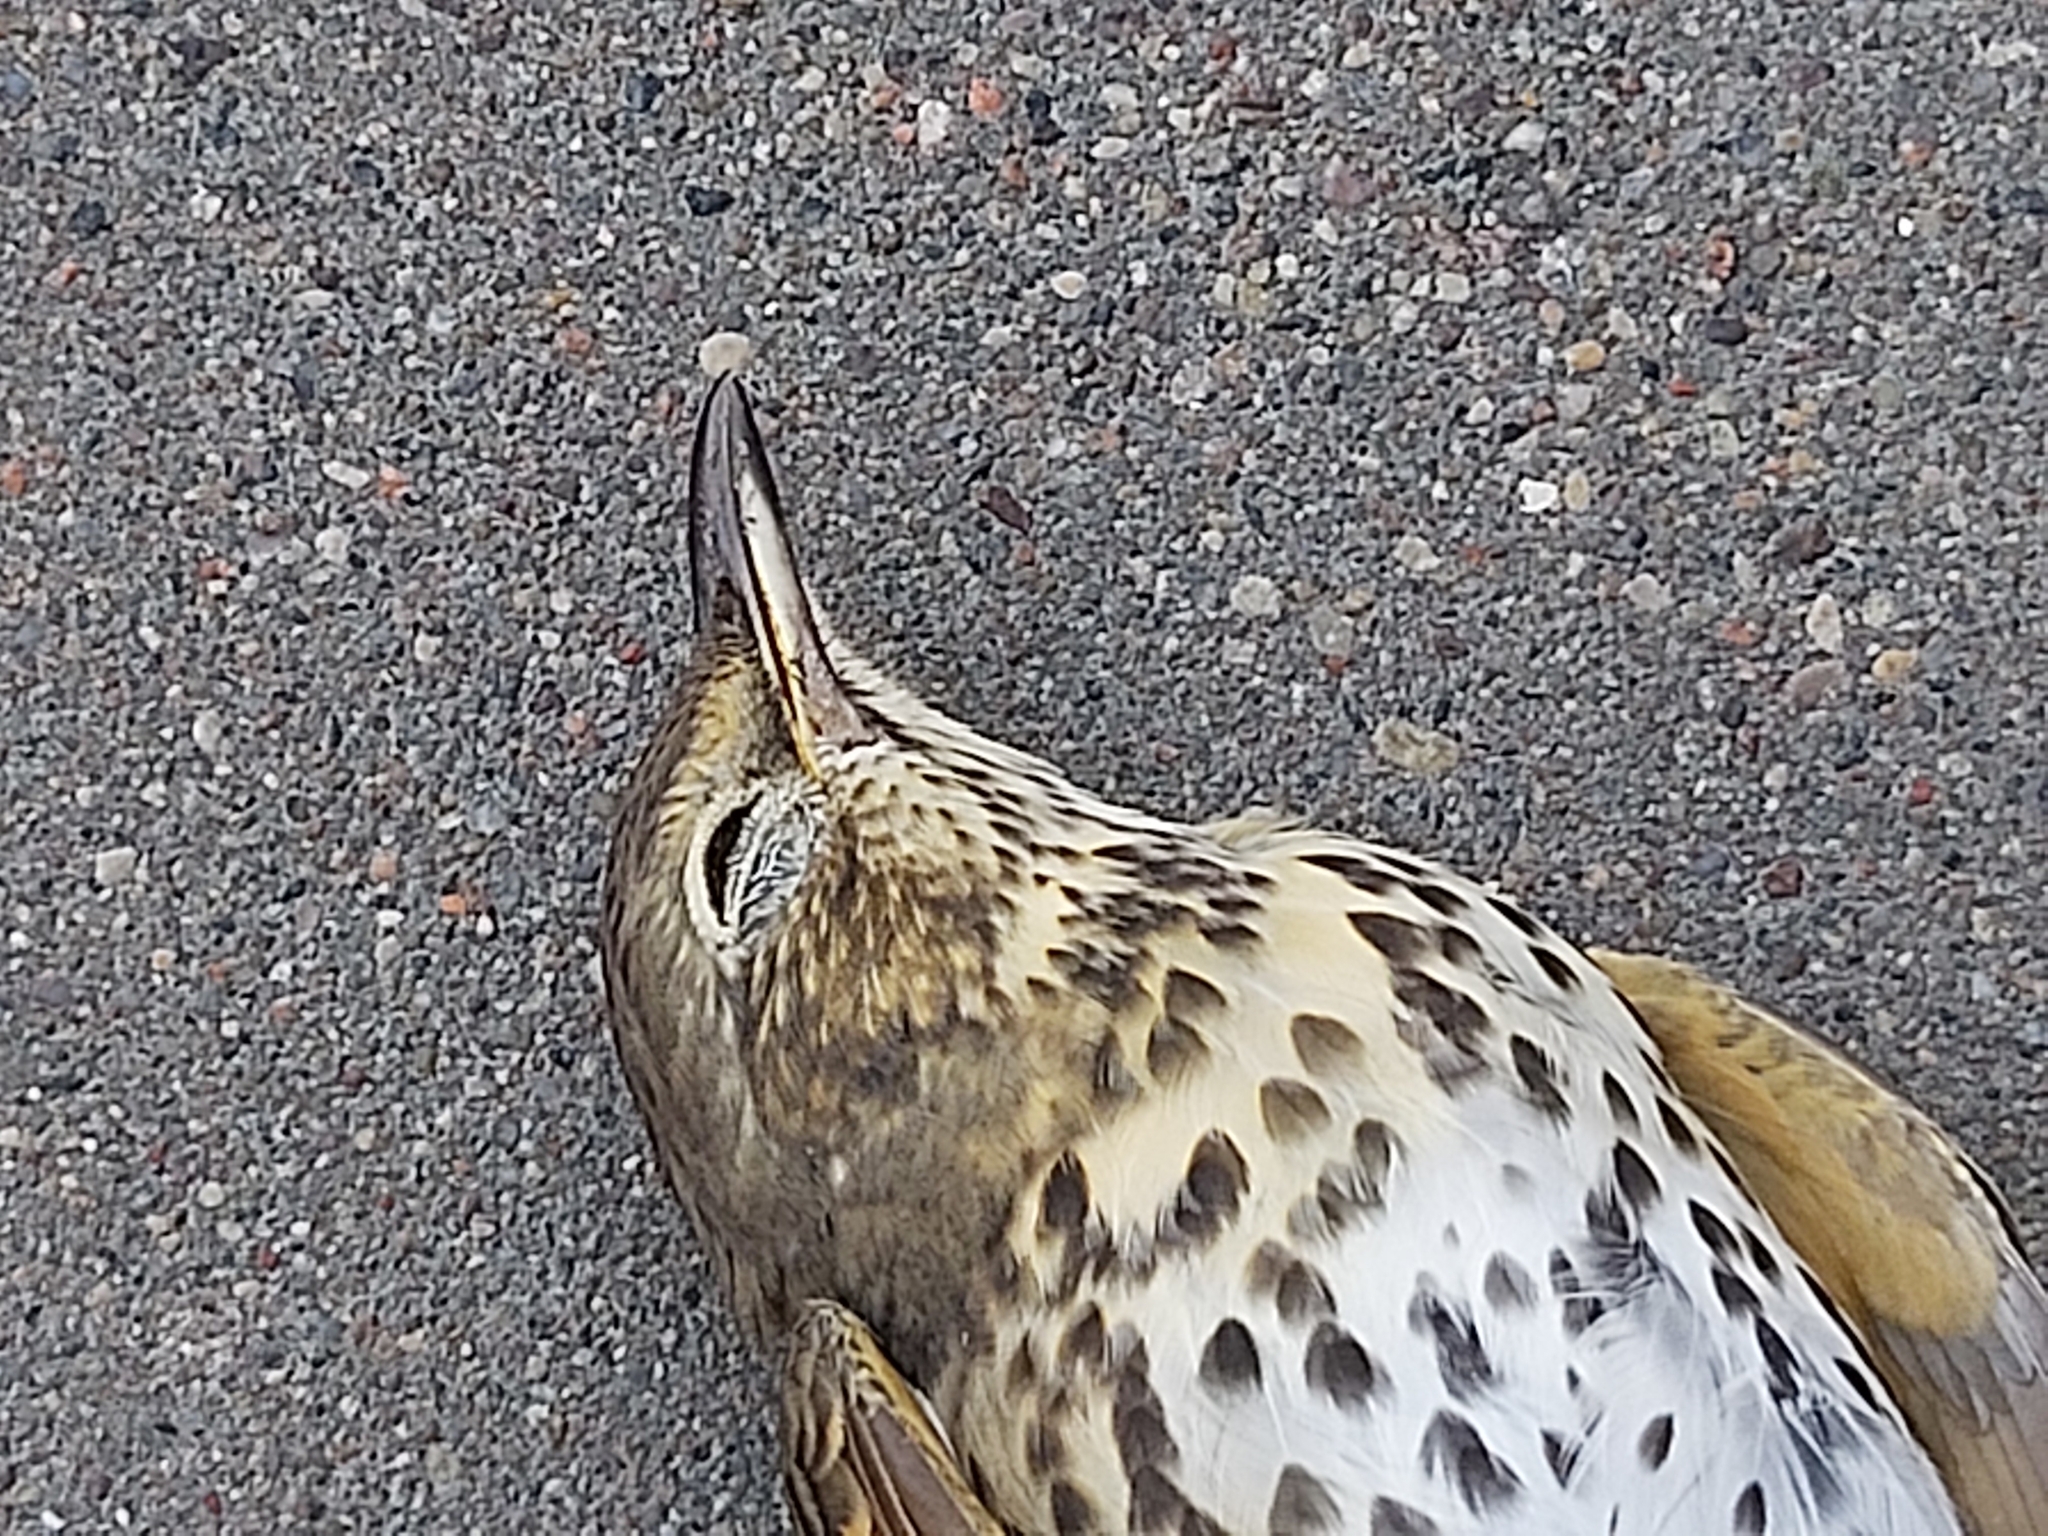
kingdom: Animalia
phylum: Chordata
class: Aves
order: Passeriformes
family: Turdidae
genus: Turdus
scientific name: Turdus philomelos
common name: Song thrush
